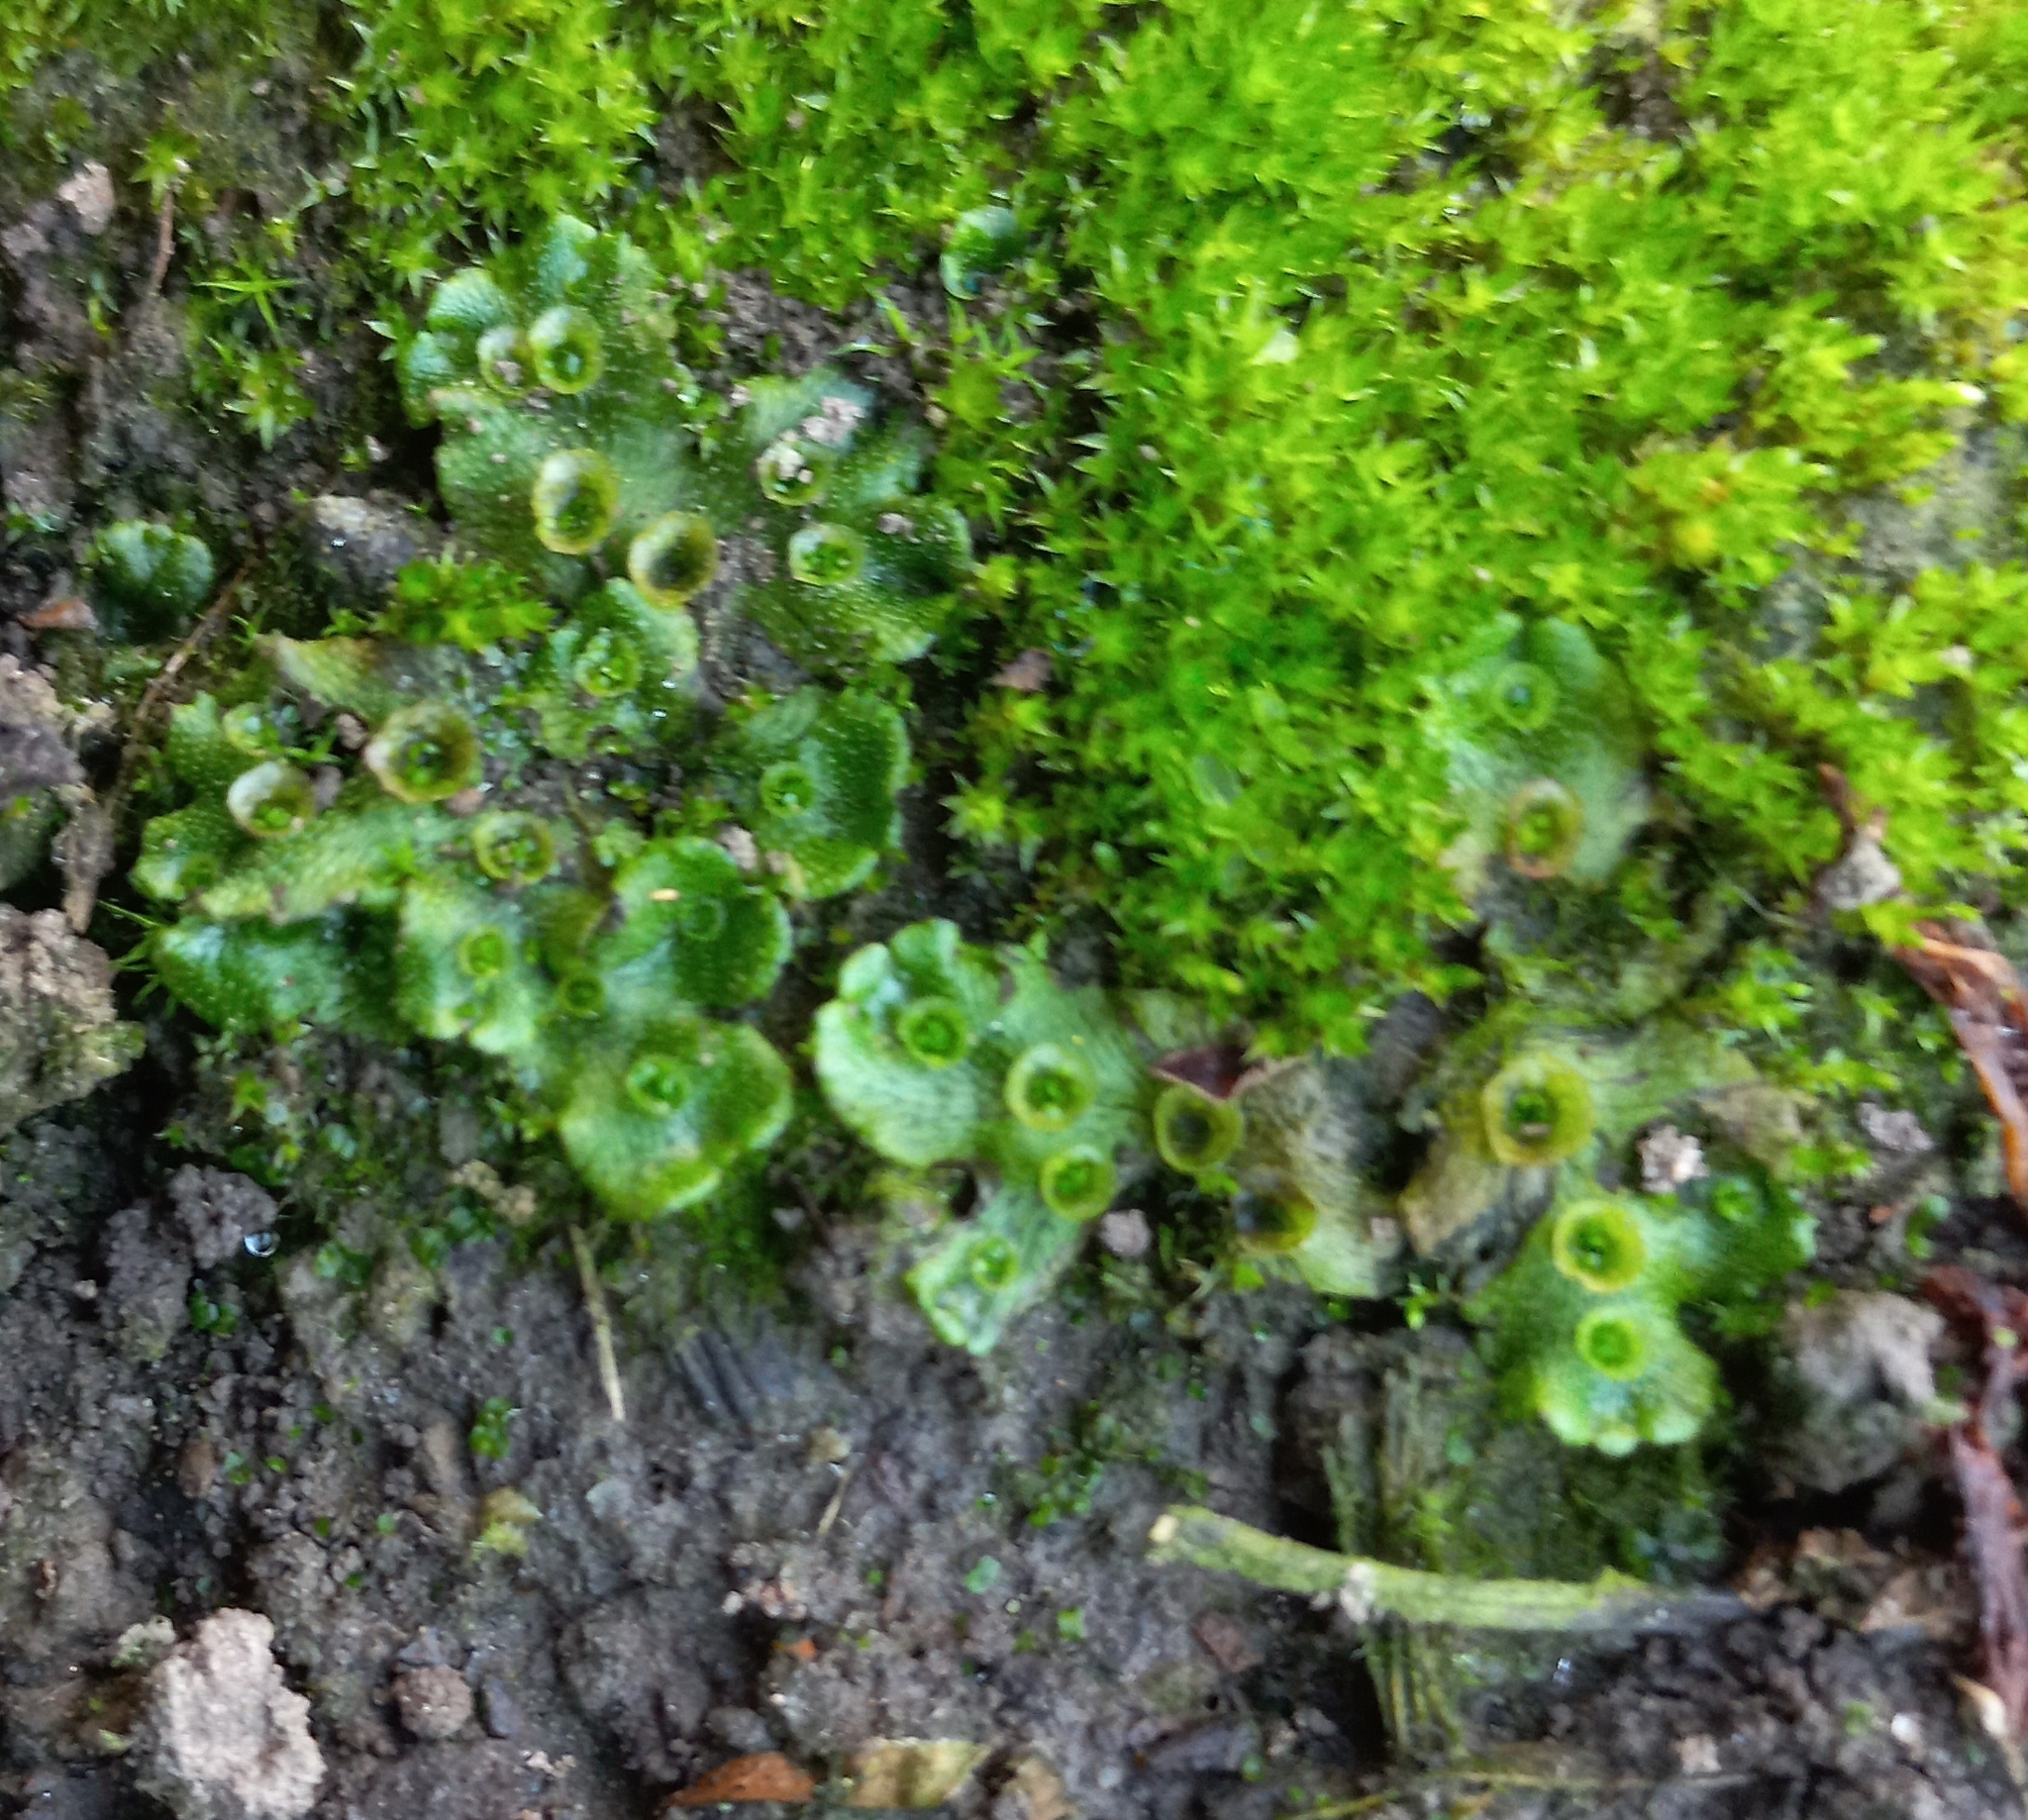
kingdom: Plantae
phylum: Marchantiophyta
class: Marchantiopsida
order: Marchantiales
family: Marchantiaceae
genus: Marchantia
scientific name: Marchantia polymorpha
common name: Common liverwort
